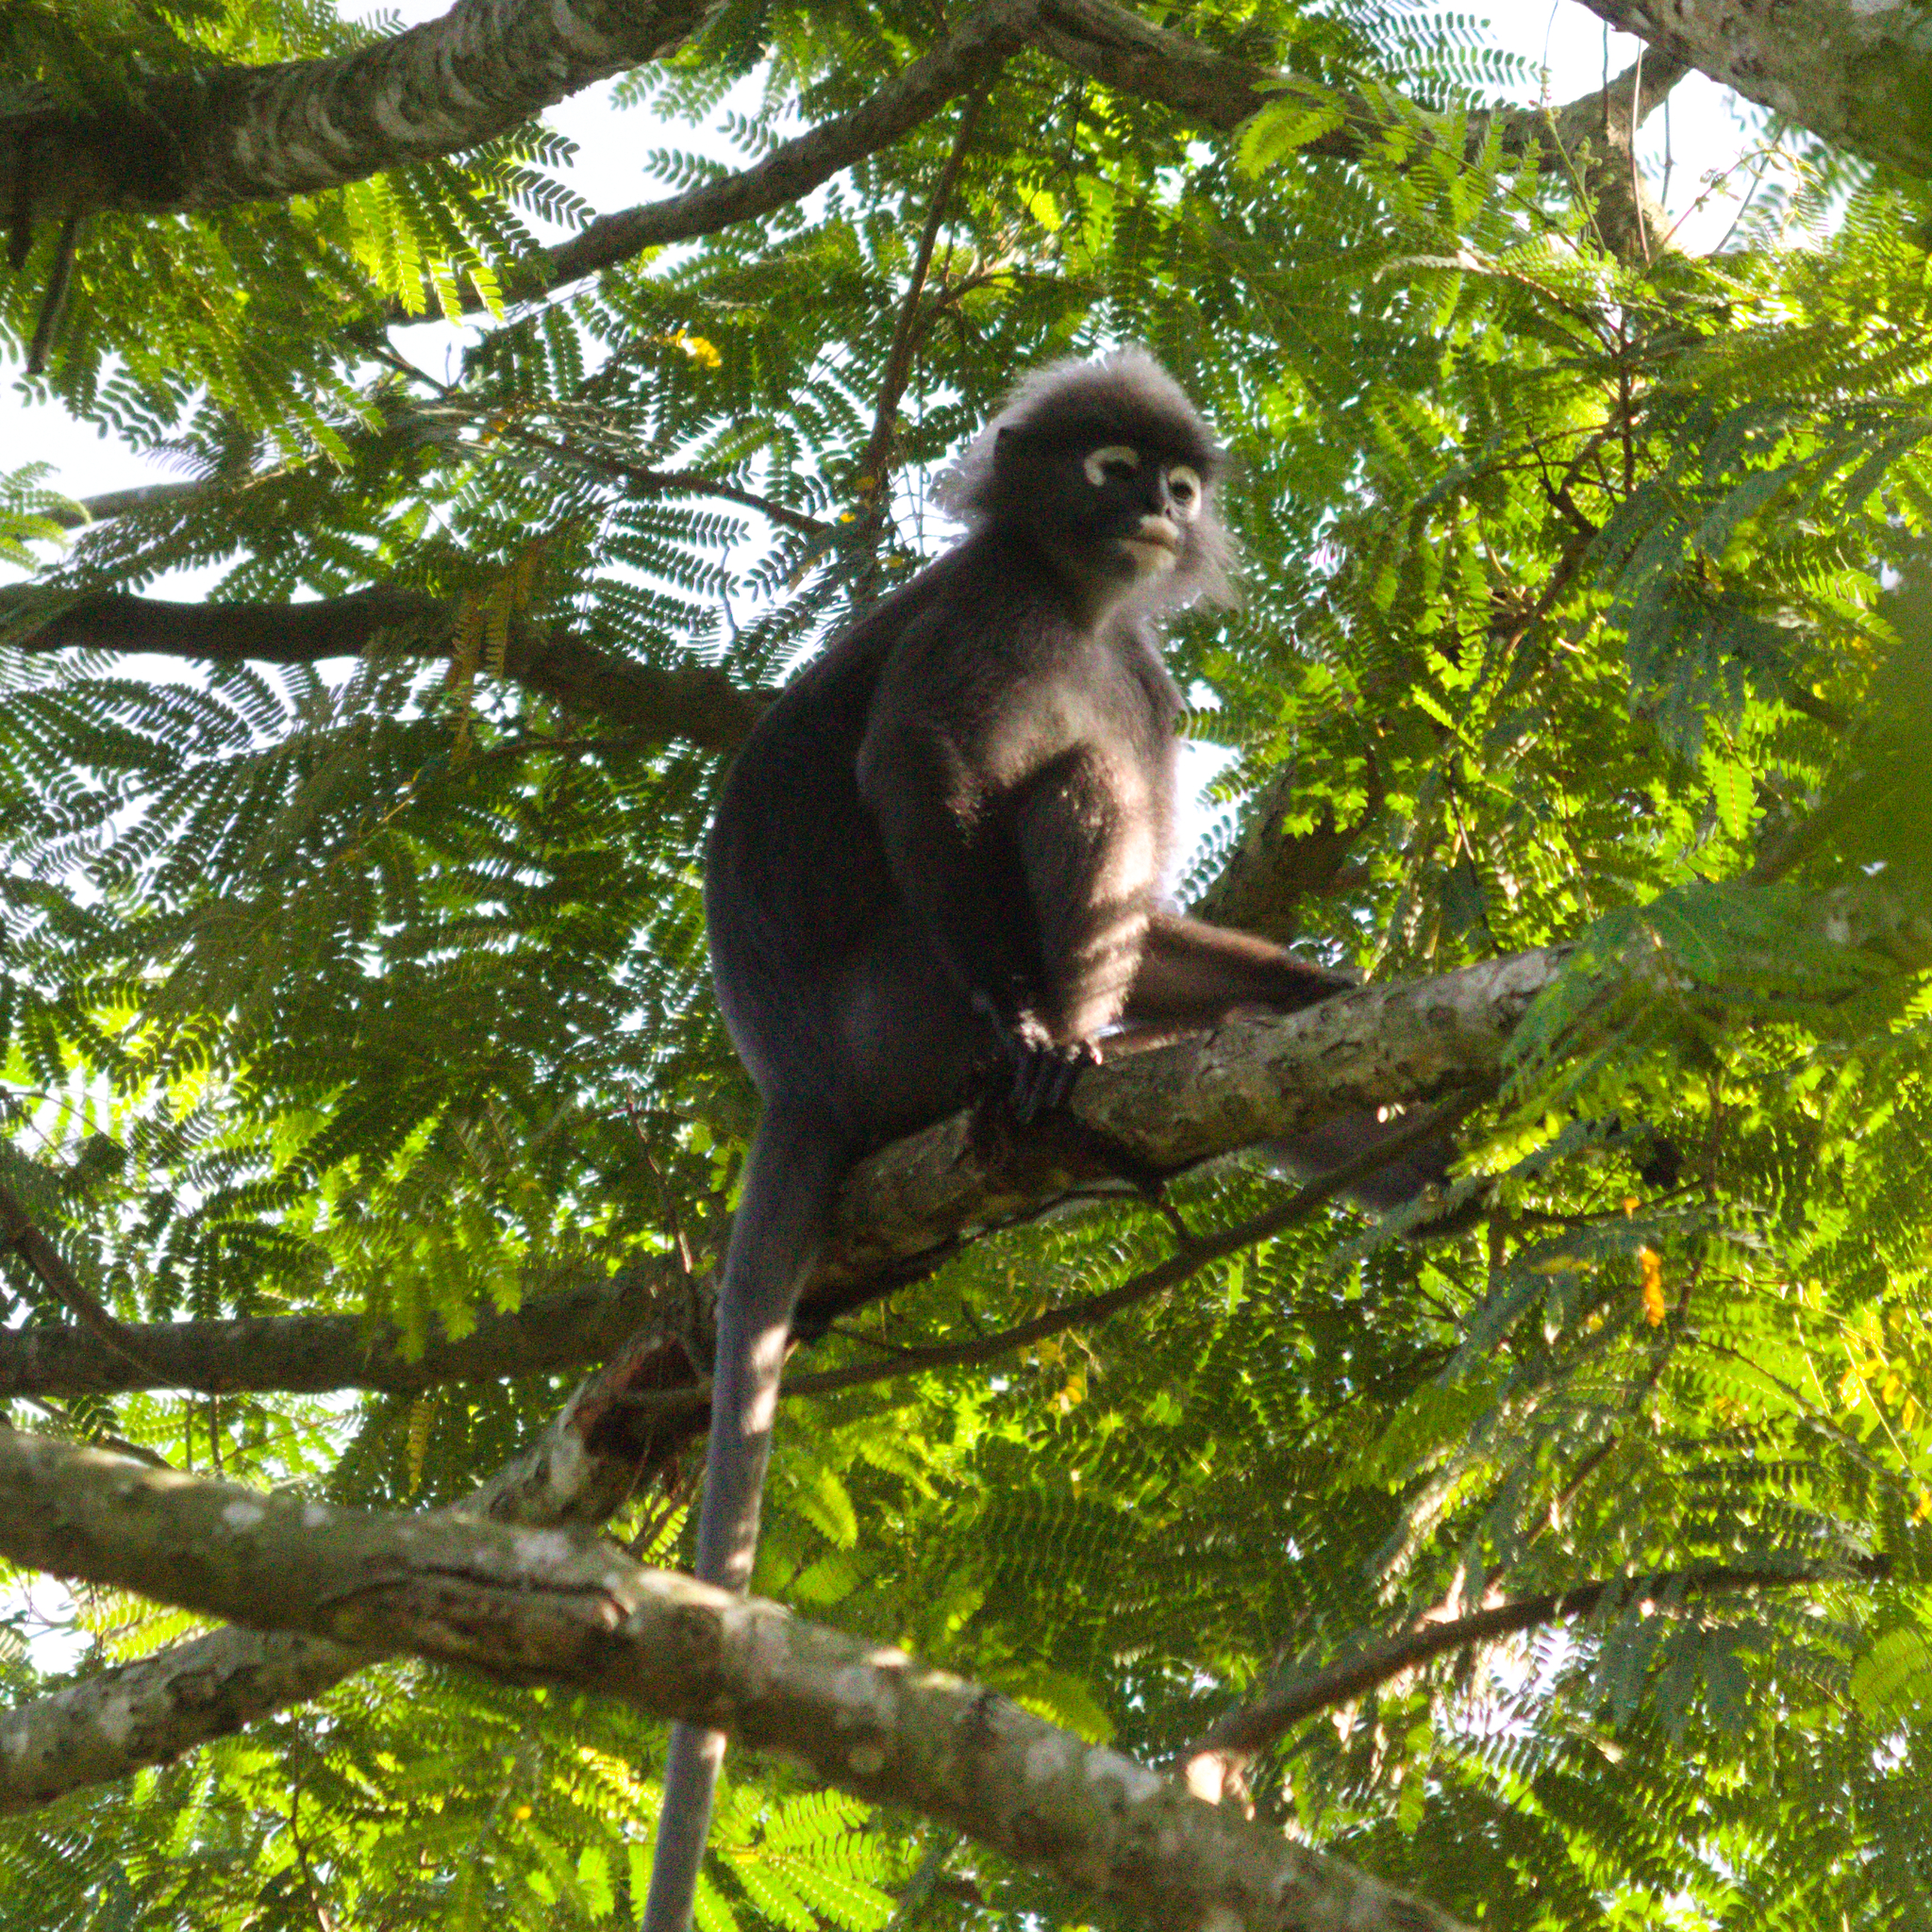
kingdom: Animalia
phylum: Chordata
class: Mammalia
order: Primates
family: Cercopithecidae
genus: Trachypithecus
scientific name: Trachypithecus obscurus
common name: Dusky leaf-monkey
